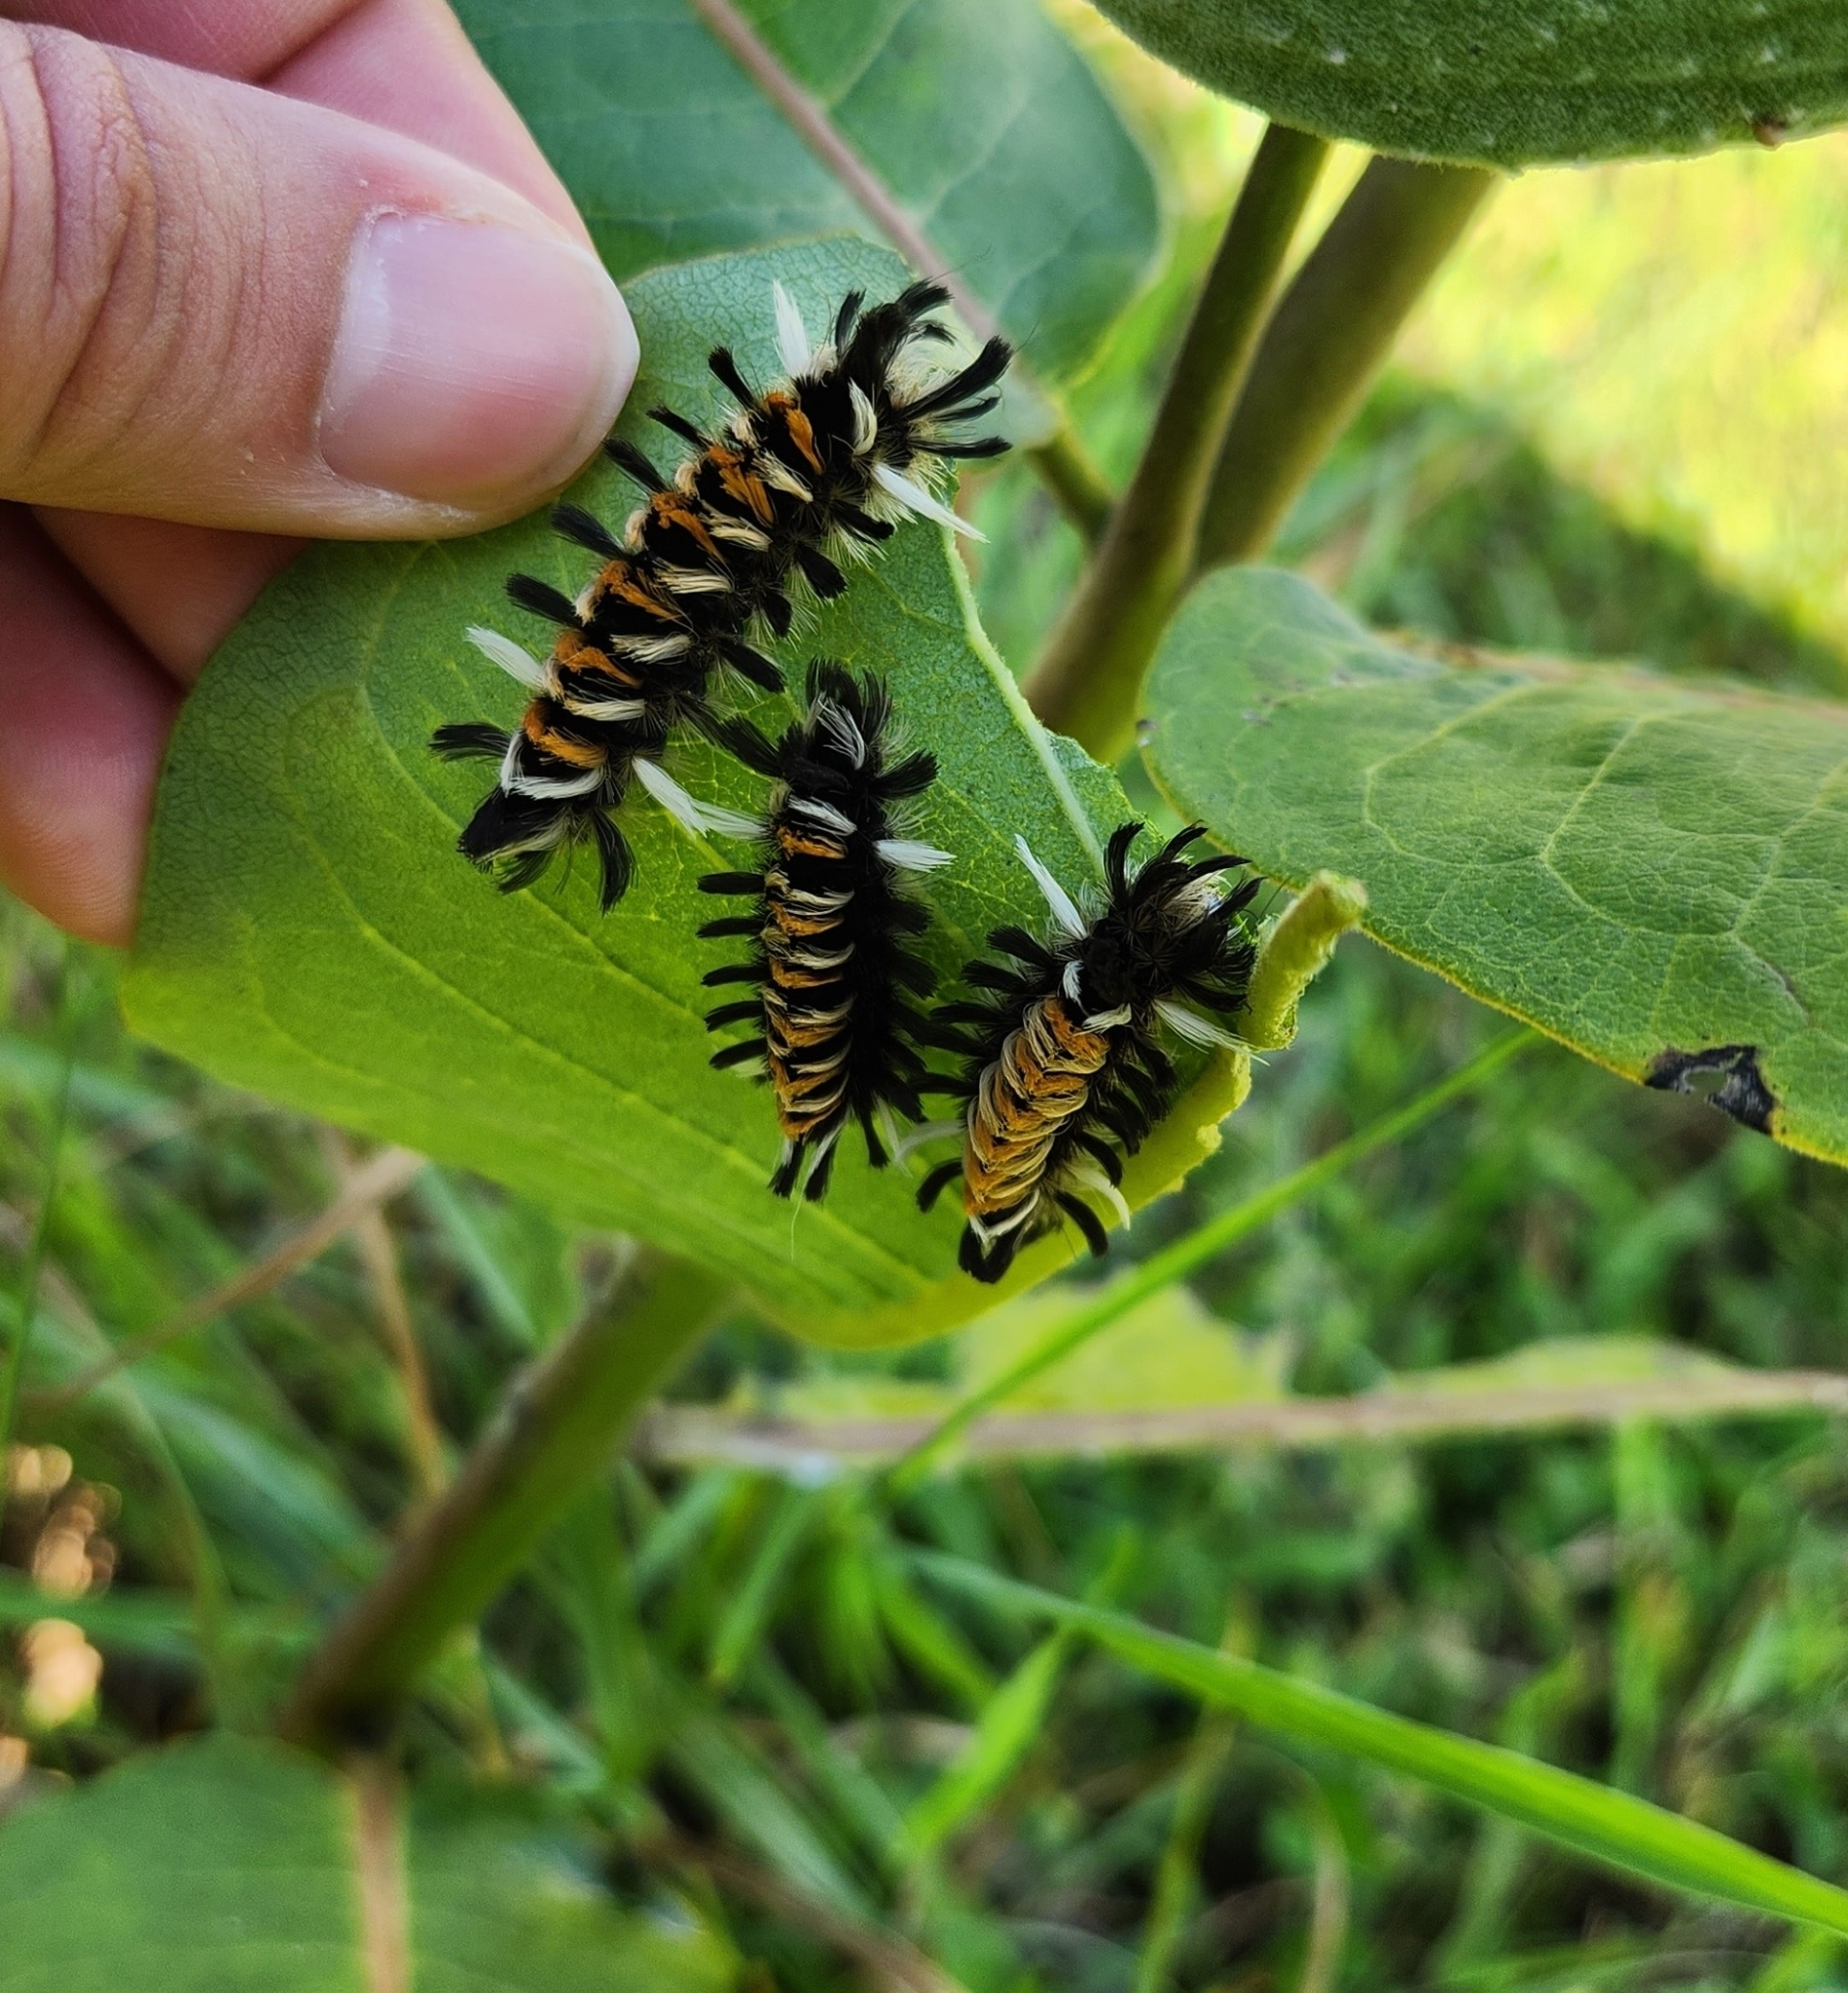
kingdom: Animalia
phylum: Arthropoda
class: Insecta
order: Lepidoptera
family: Erebidae
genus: Euchaetes
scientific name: Euchaetes egle
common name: Milkweed tussock moth
